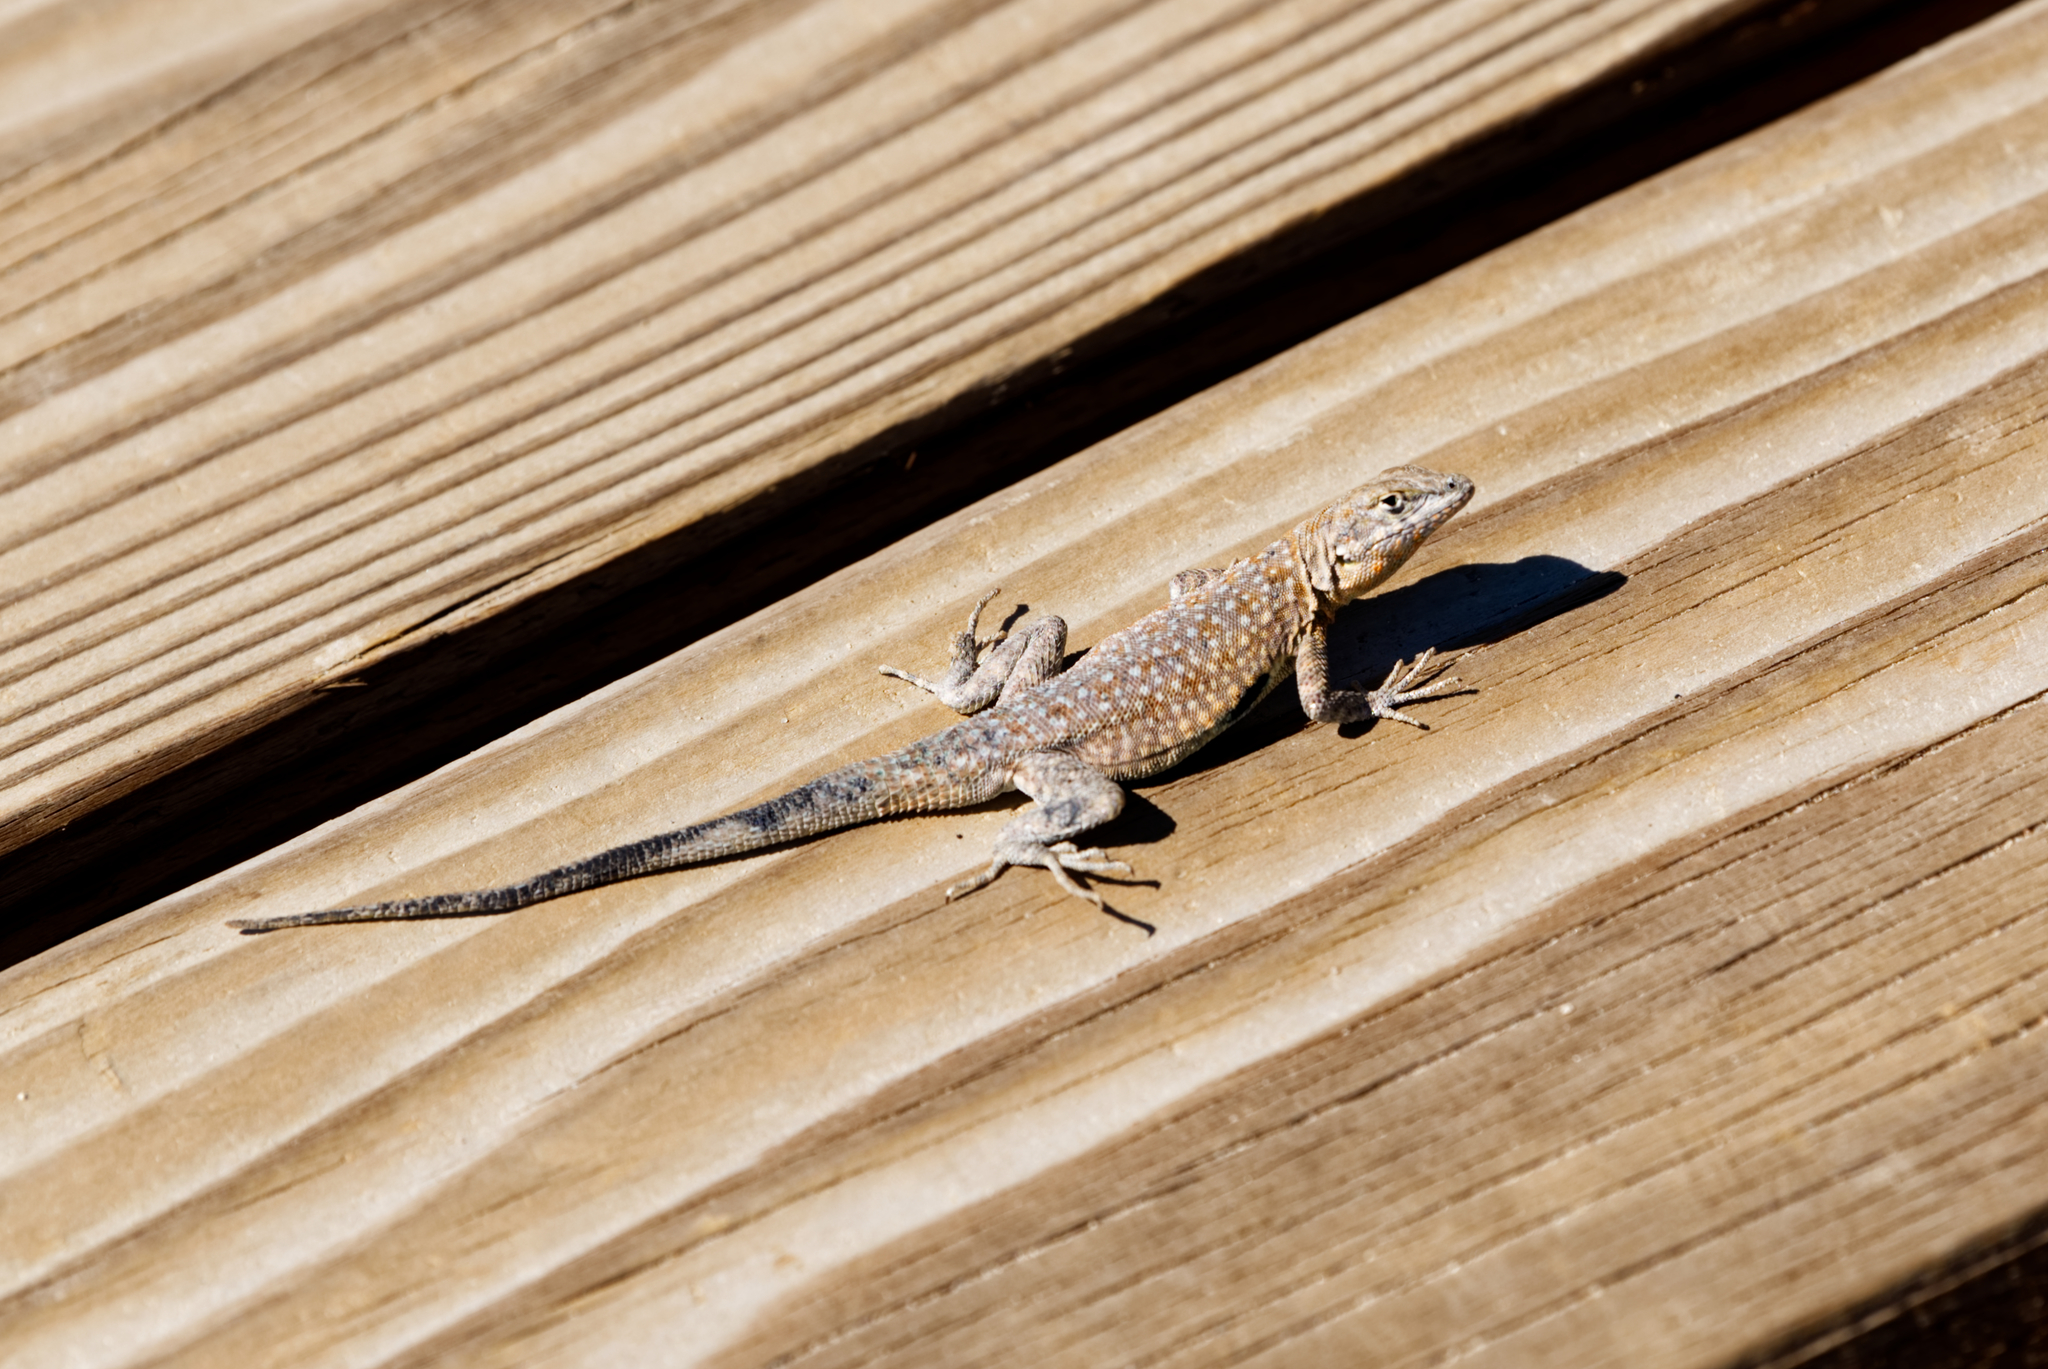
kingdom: Animalia
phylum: Chordata
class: Squamata
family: Phrynosomatidae
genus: Uta
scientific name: Uta stansburiana
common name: Side-blotched lizard
